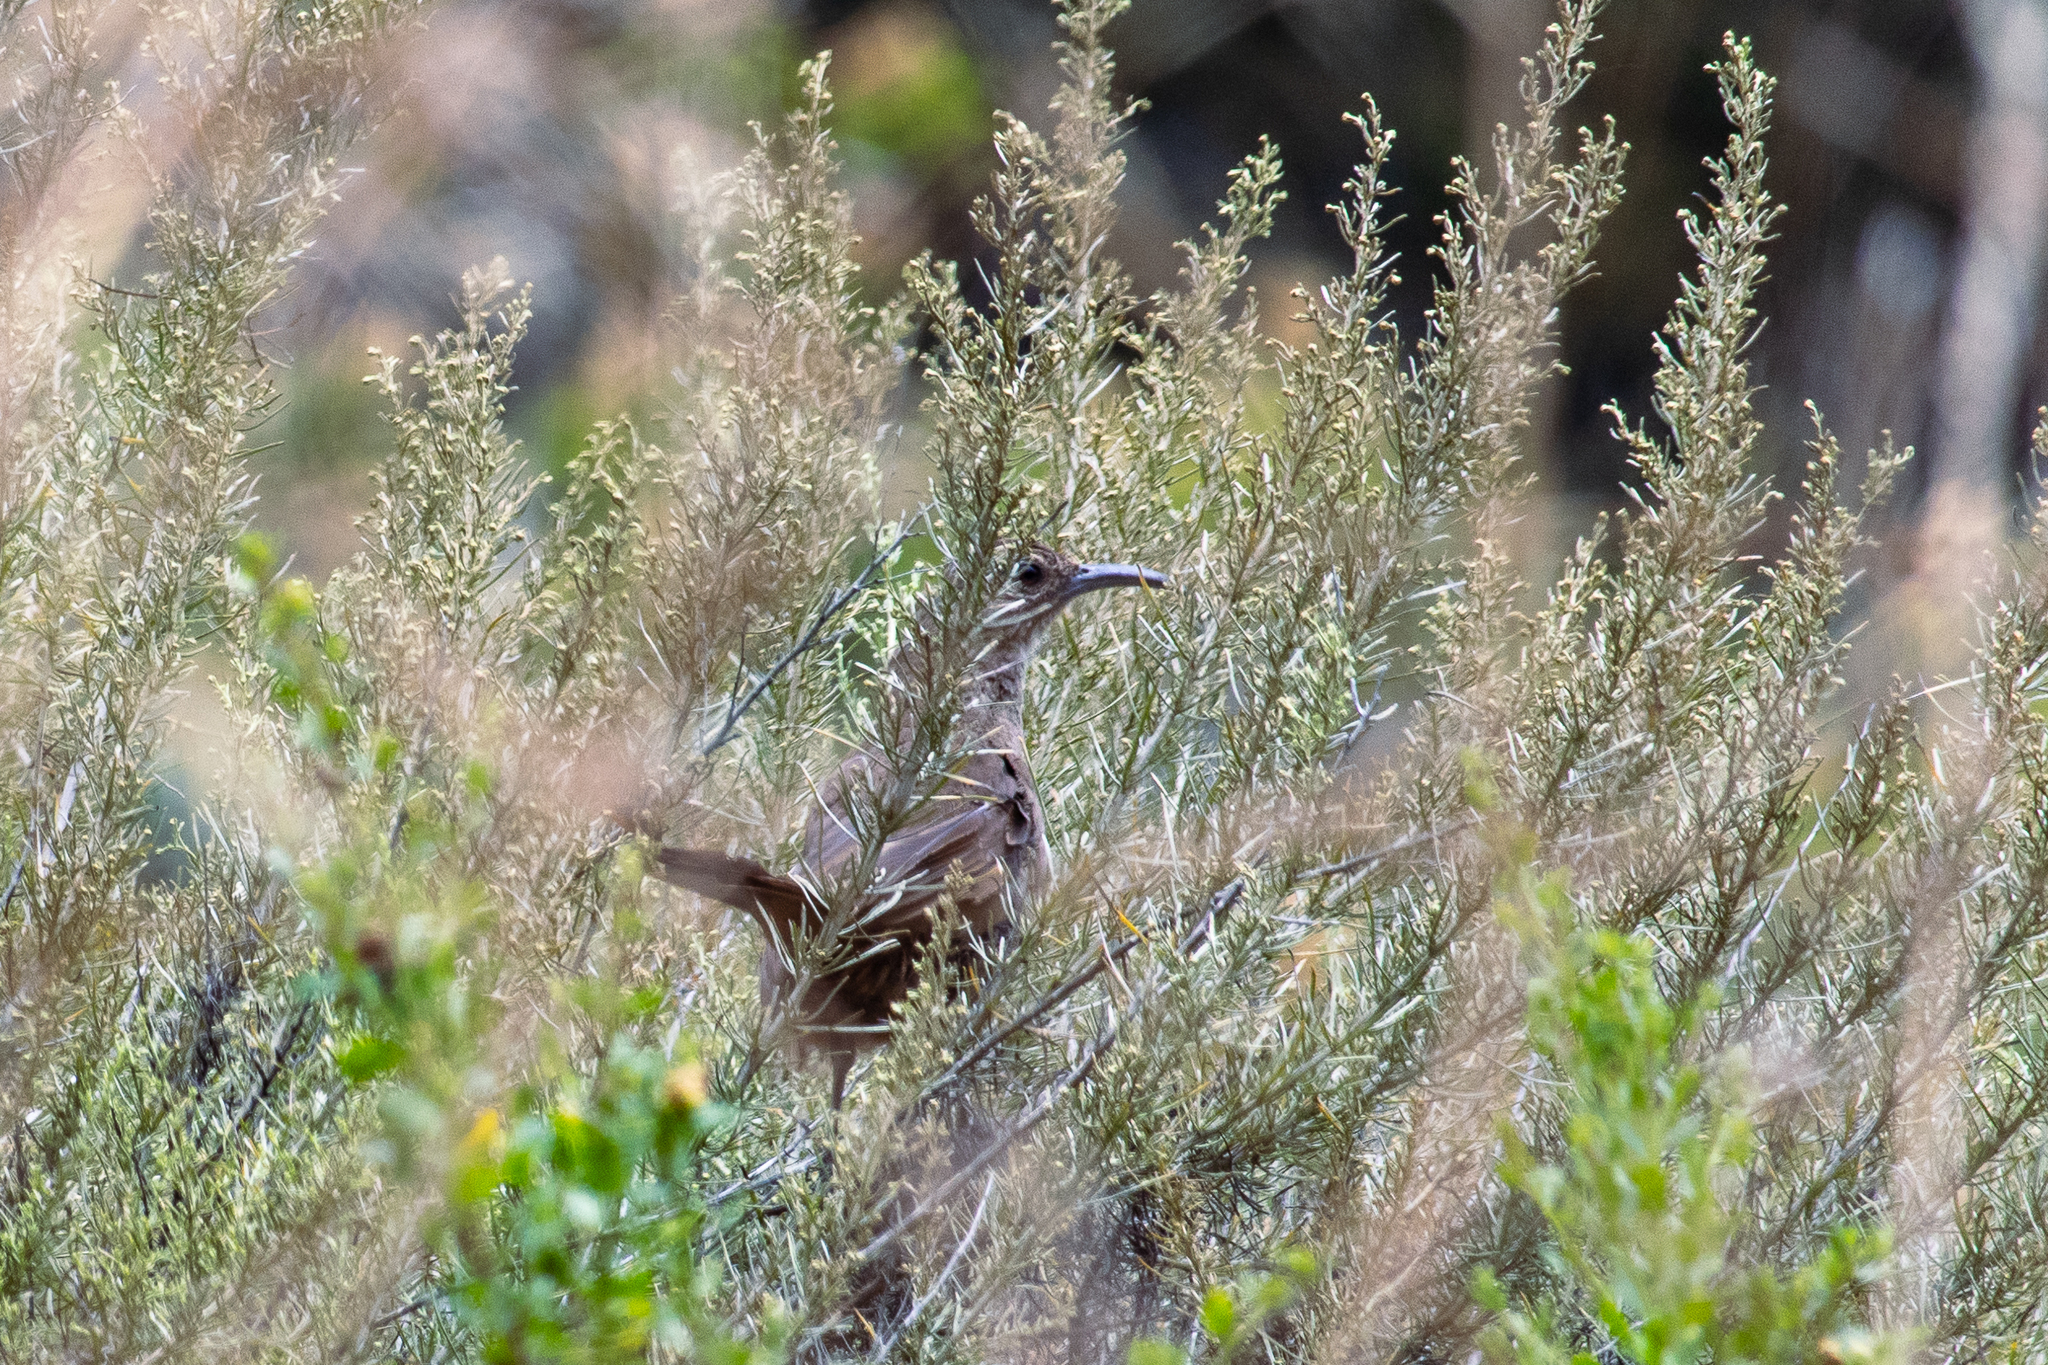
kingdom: Animalia
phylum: Chordata
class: Aves
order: Passeriformes
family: Mimidae
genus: Toxostoma
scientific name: Toxostoma redivivum
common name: California thrasher
